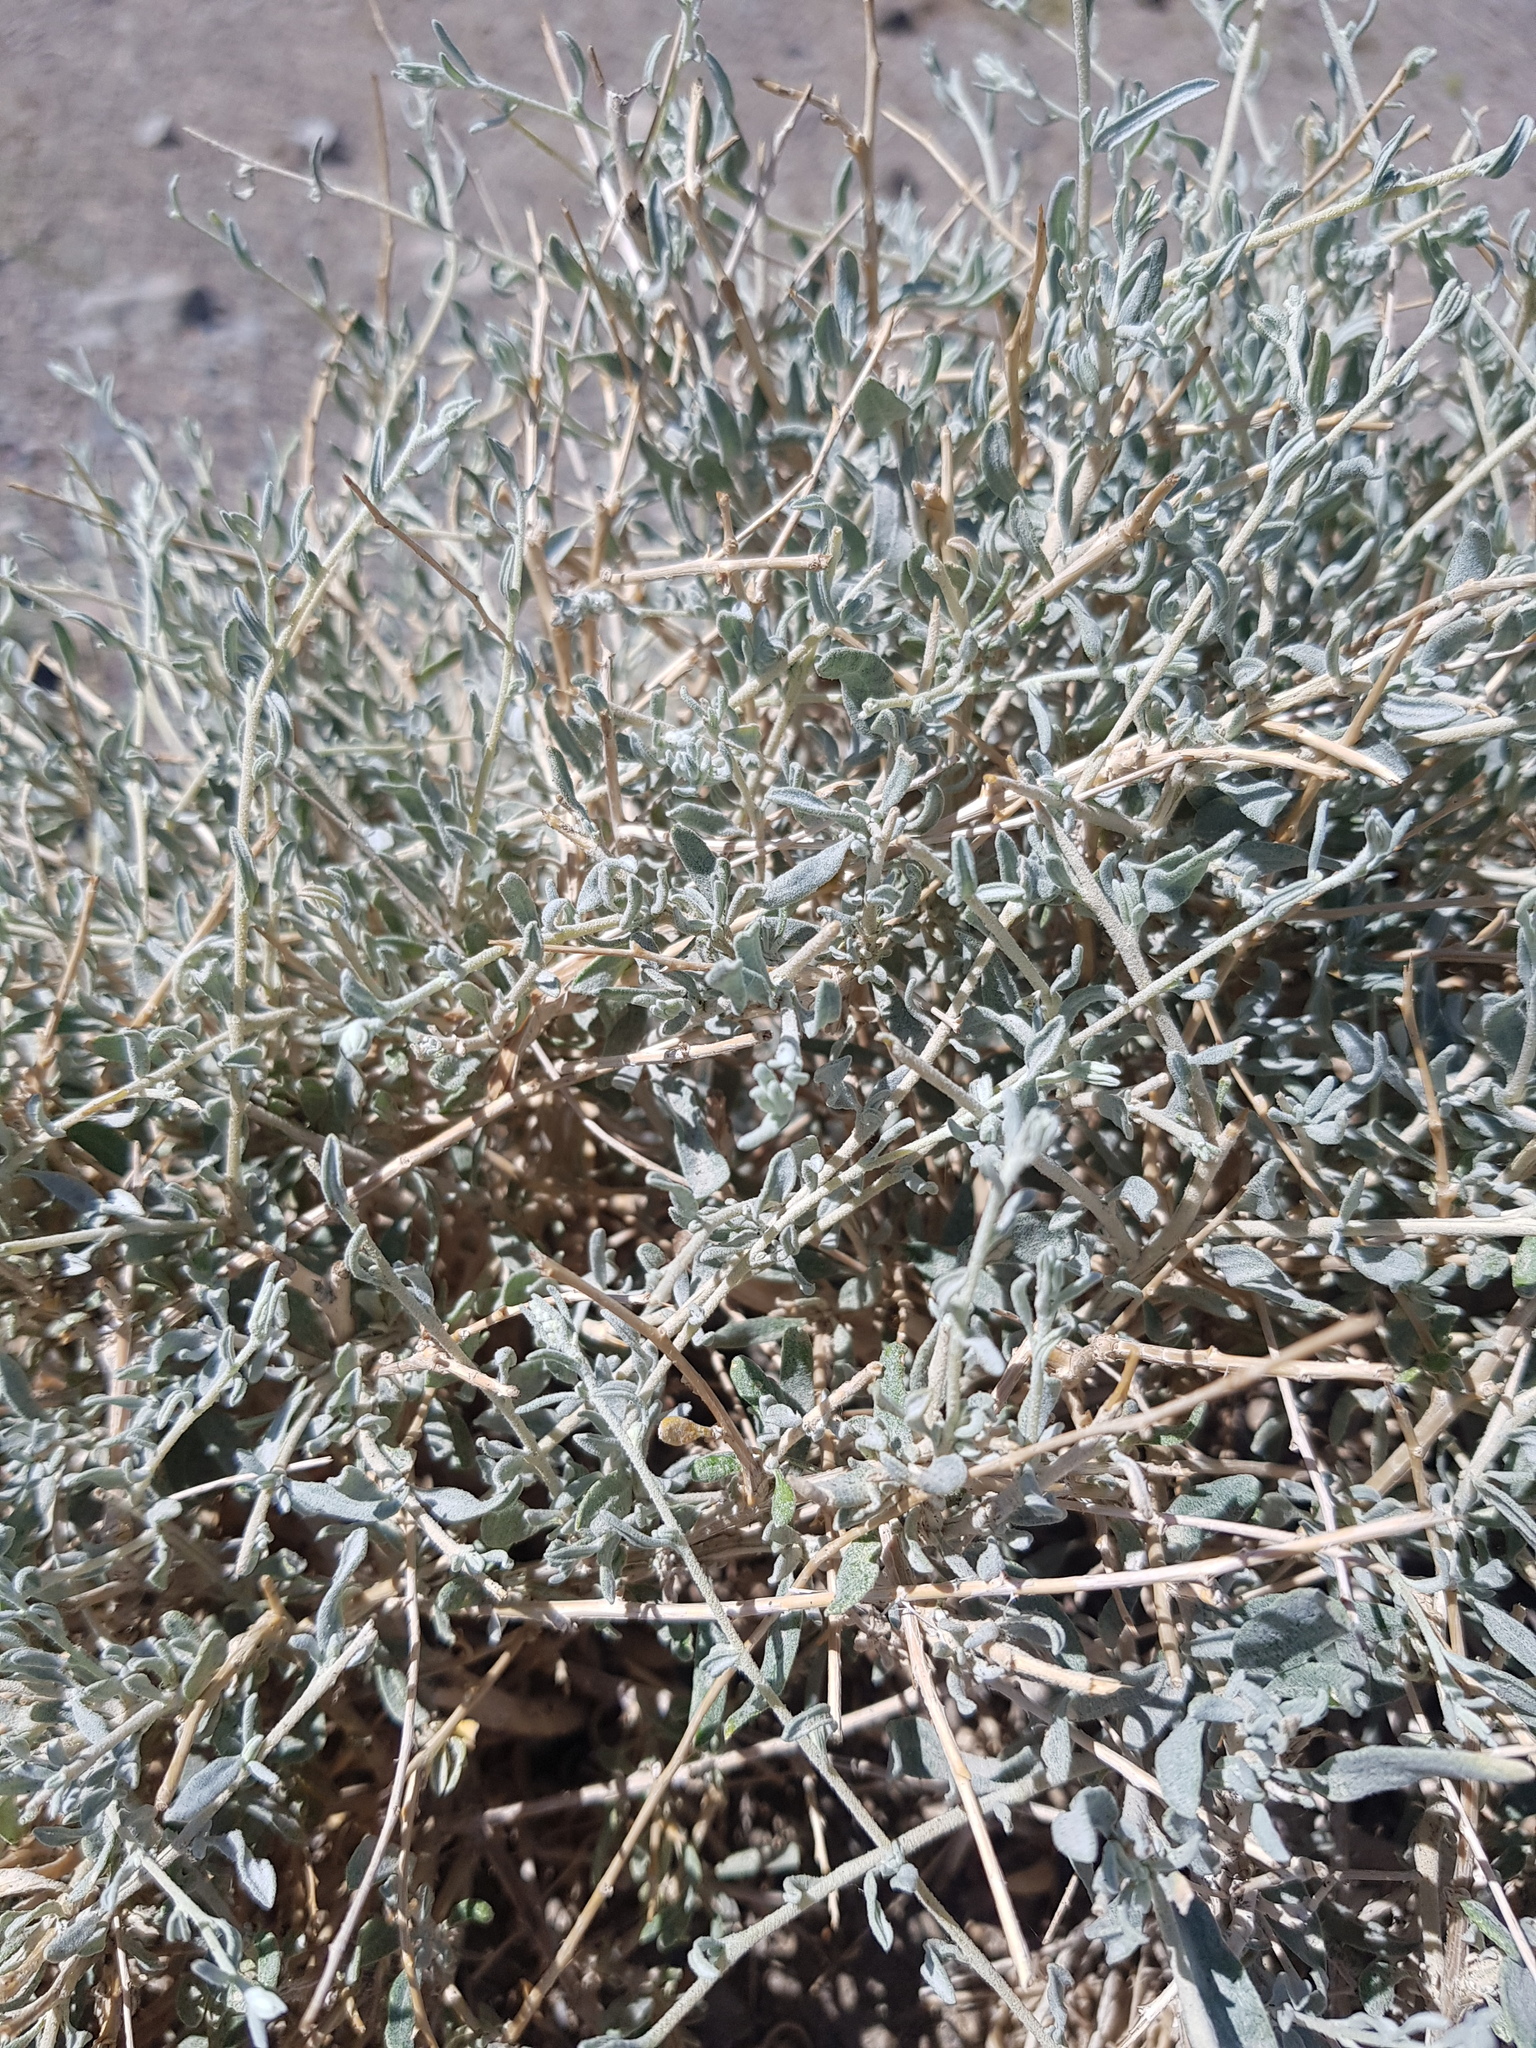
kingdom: Plantae
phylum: Tracheophyta
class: Magnoliopsida
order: Caryophyllales
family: Amaranthaceae
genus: Krascheninnikovia
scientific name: Krascheninnikovia ceratoides
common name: Pamirian winterfat
